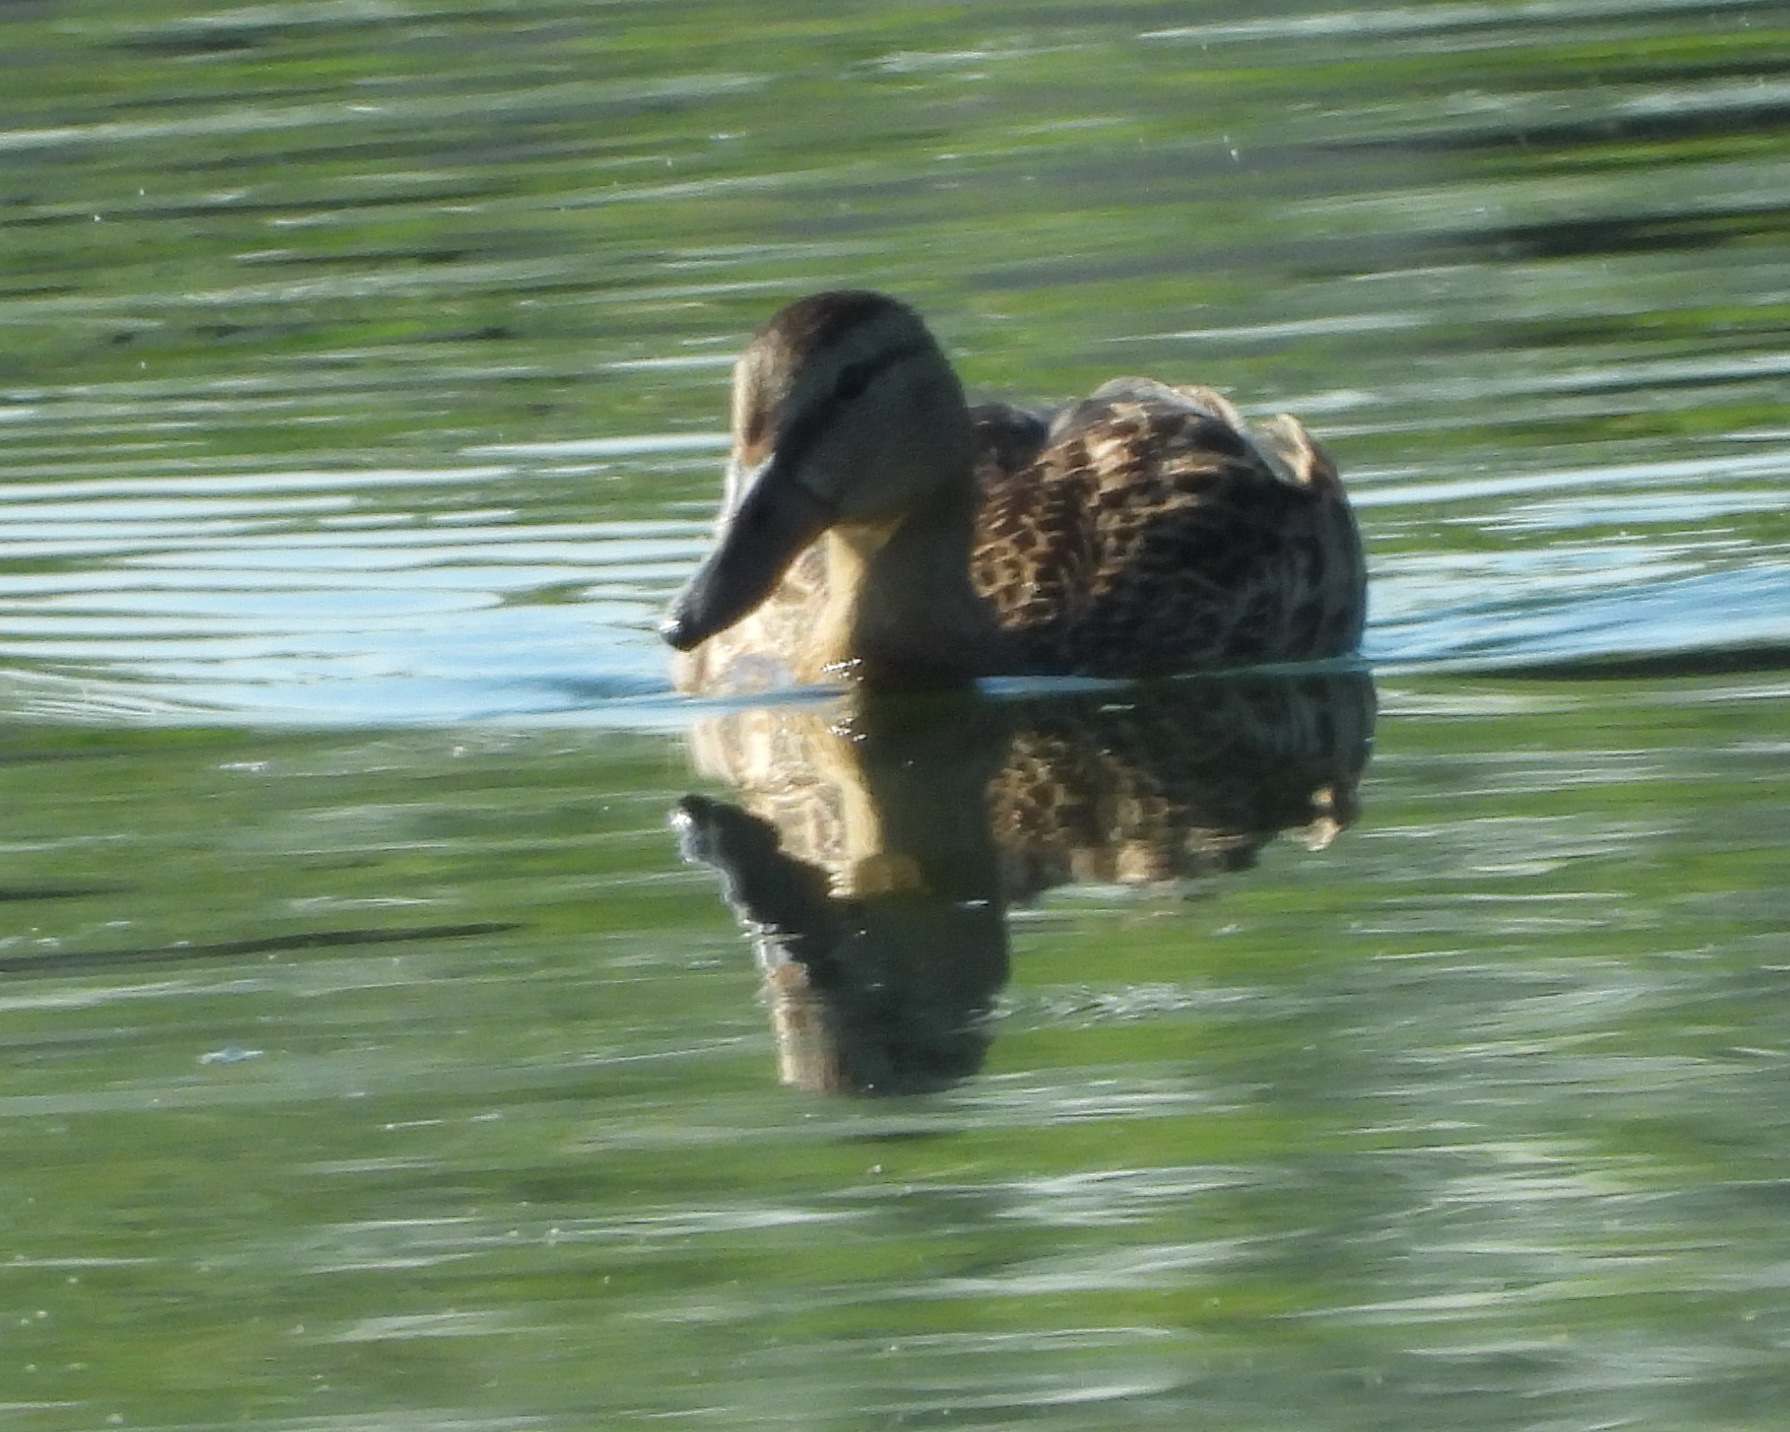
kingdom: Animalia
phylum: Chordata
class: Aves
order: Anseriformes
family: Anatidae
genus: Anas
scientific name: Anas platyrhynchos
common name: Mallard
